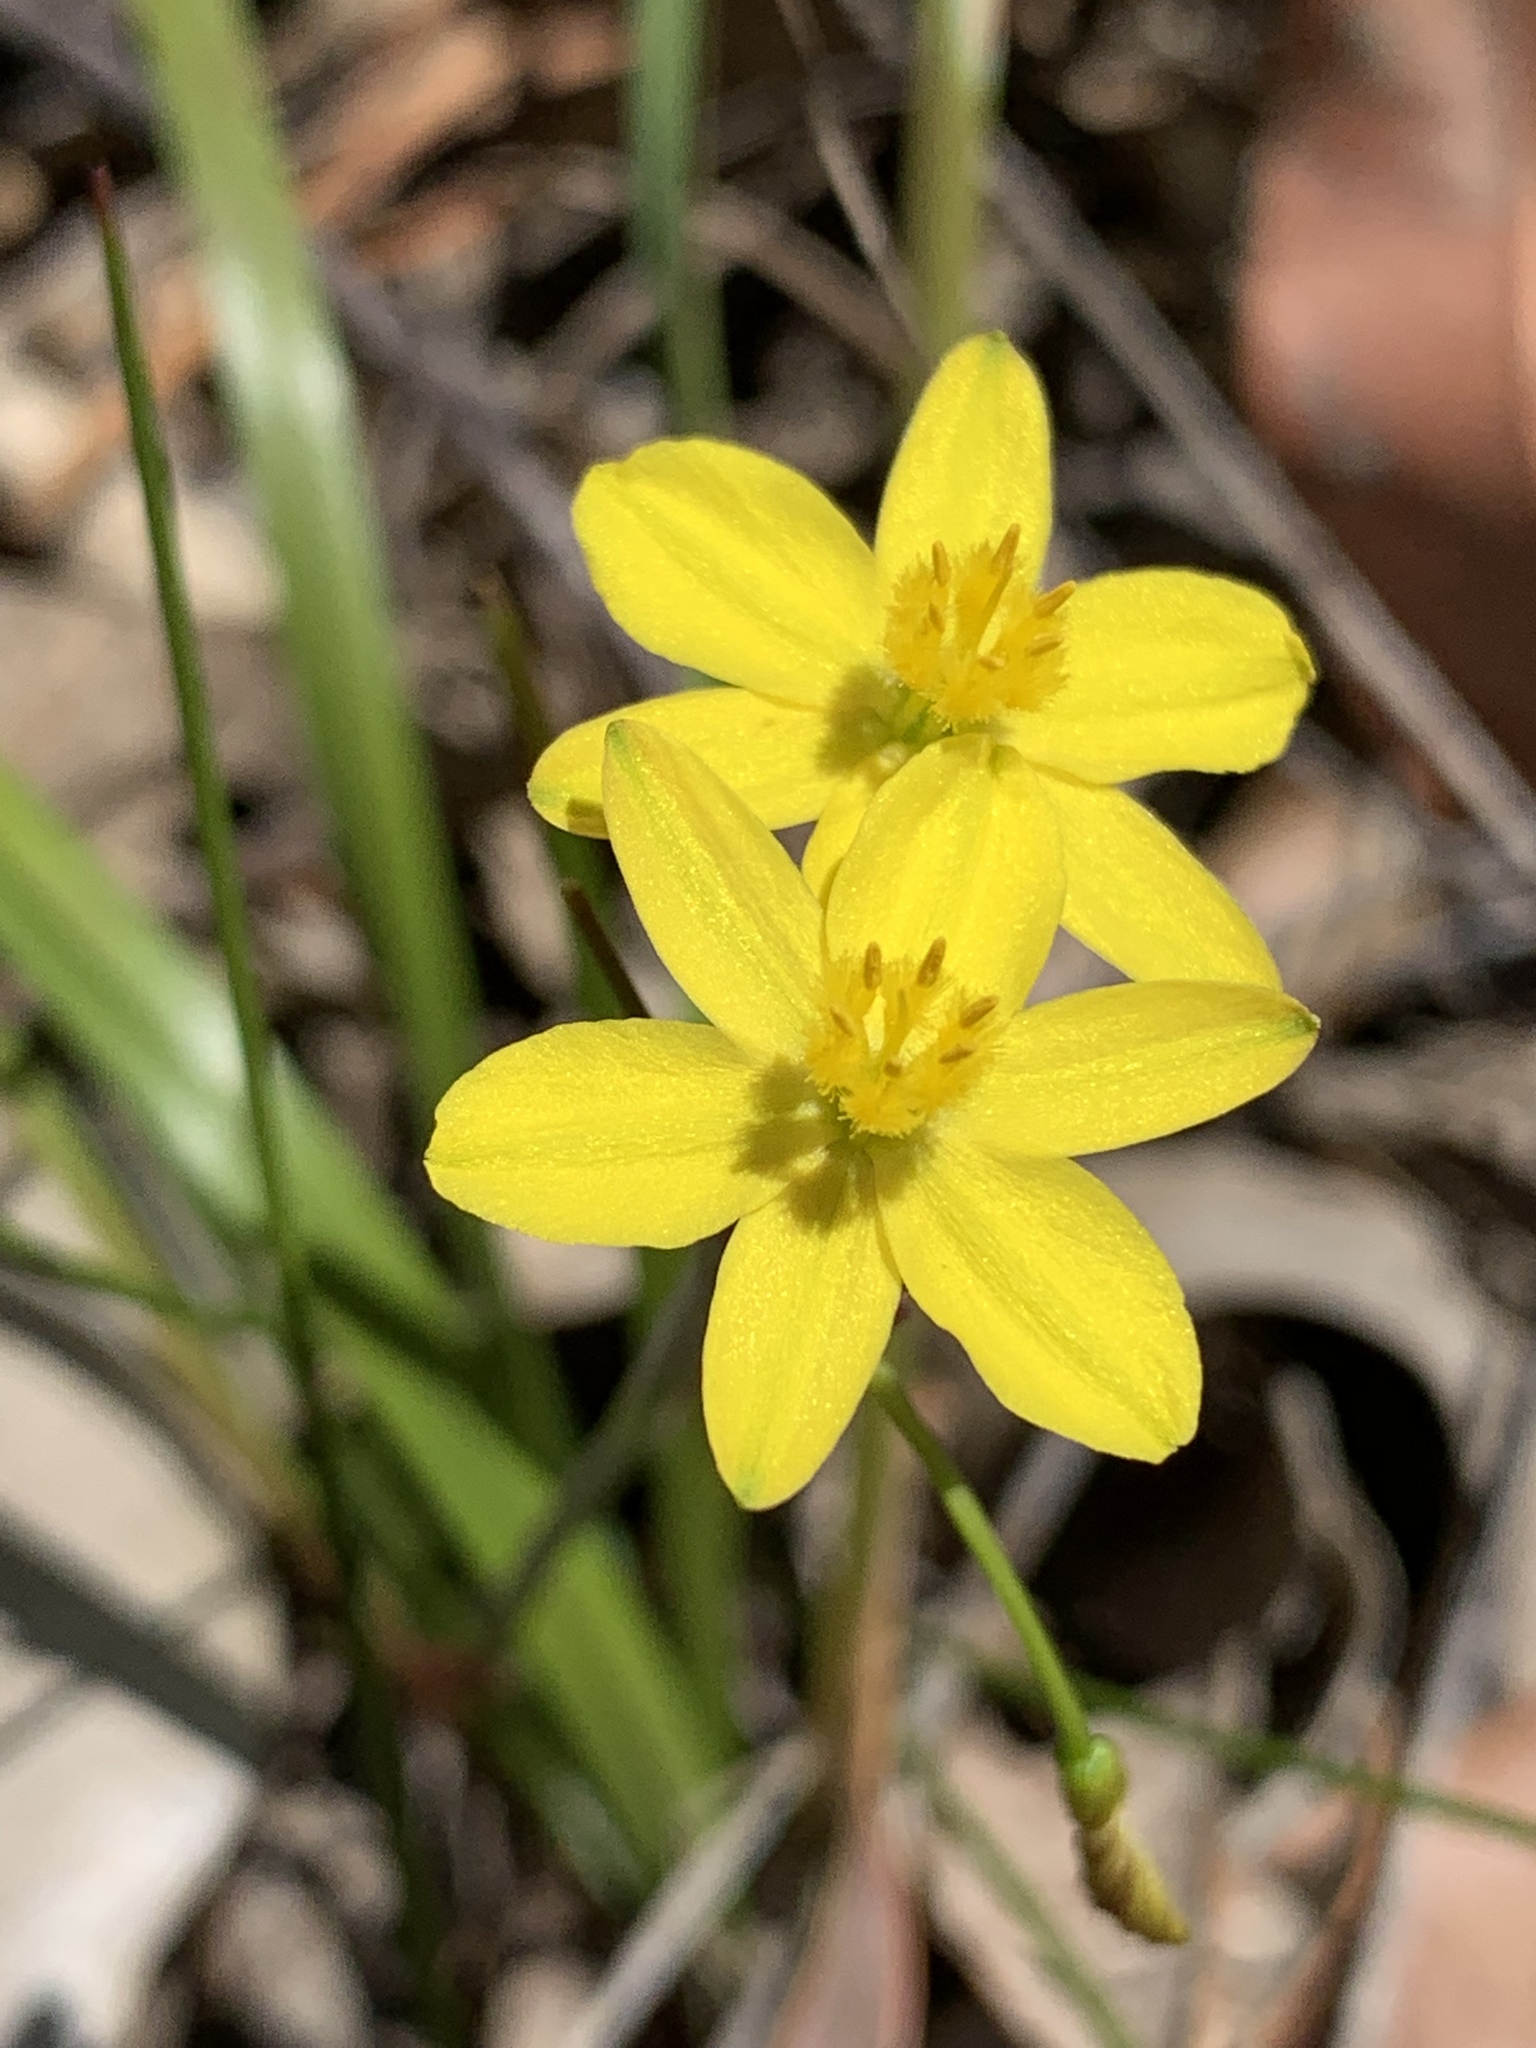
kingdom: Plantae
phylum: Tracheophyta
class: Liliopsida
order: Asparagales
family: Asphodelaceae
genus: Tricoryne
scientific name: Tricoryne simplex
